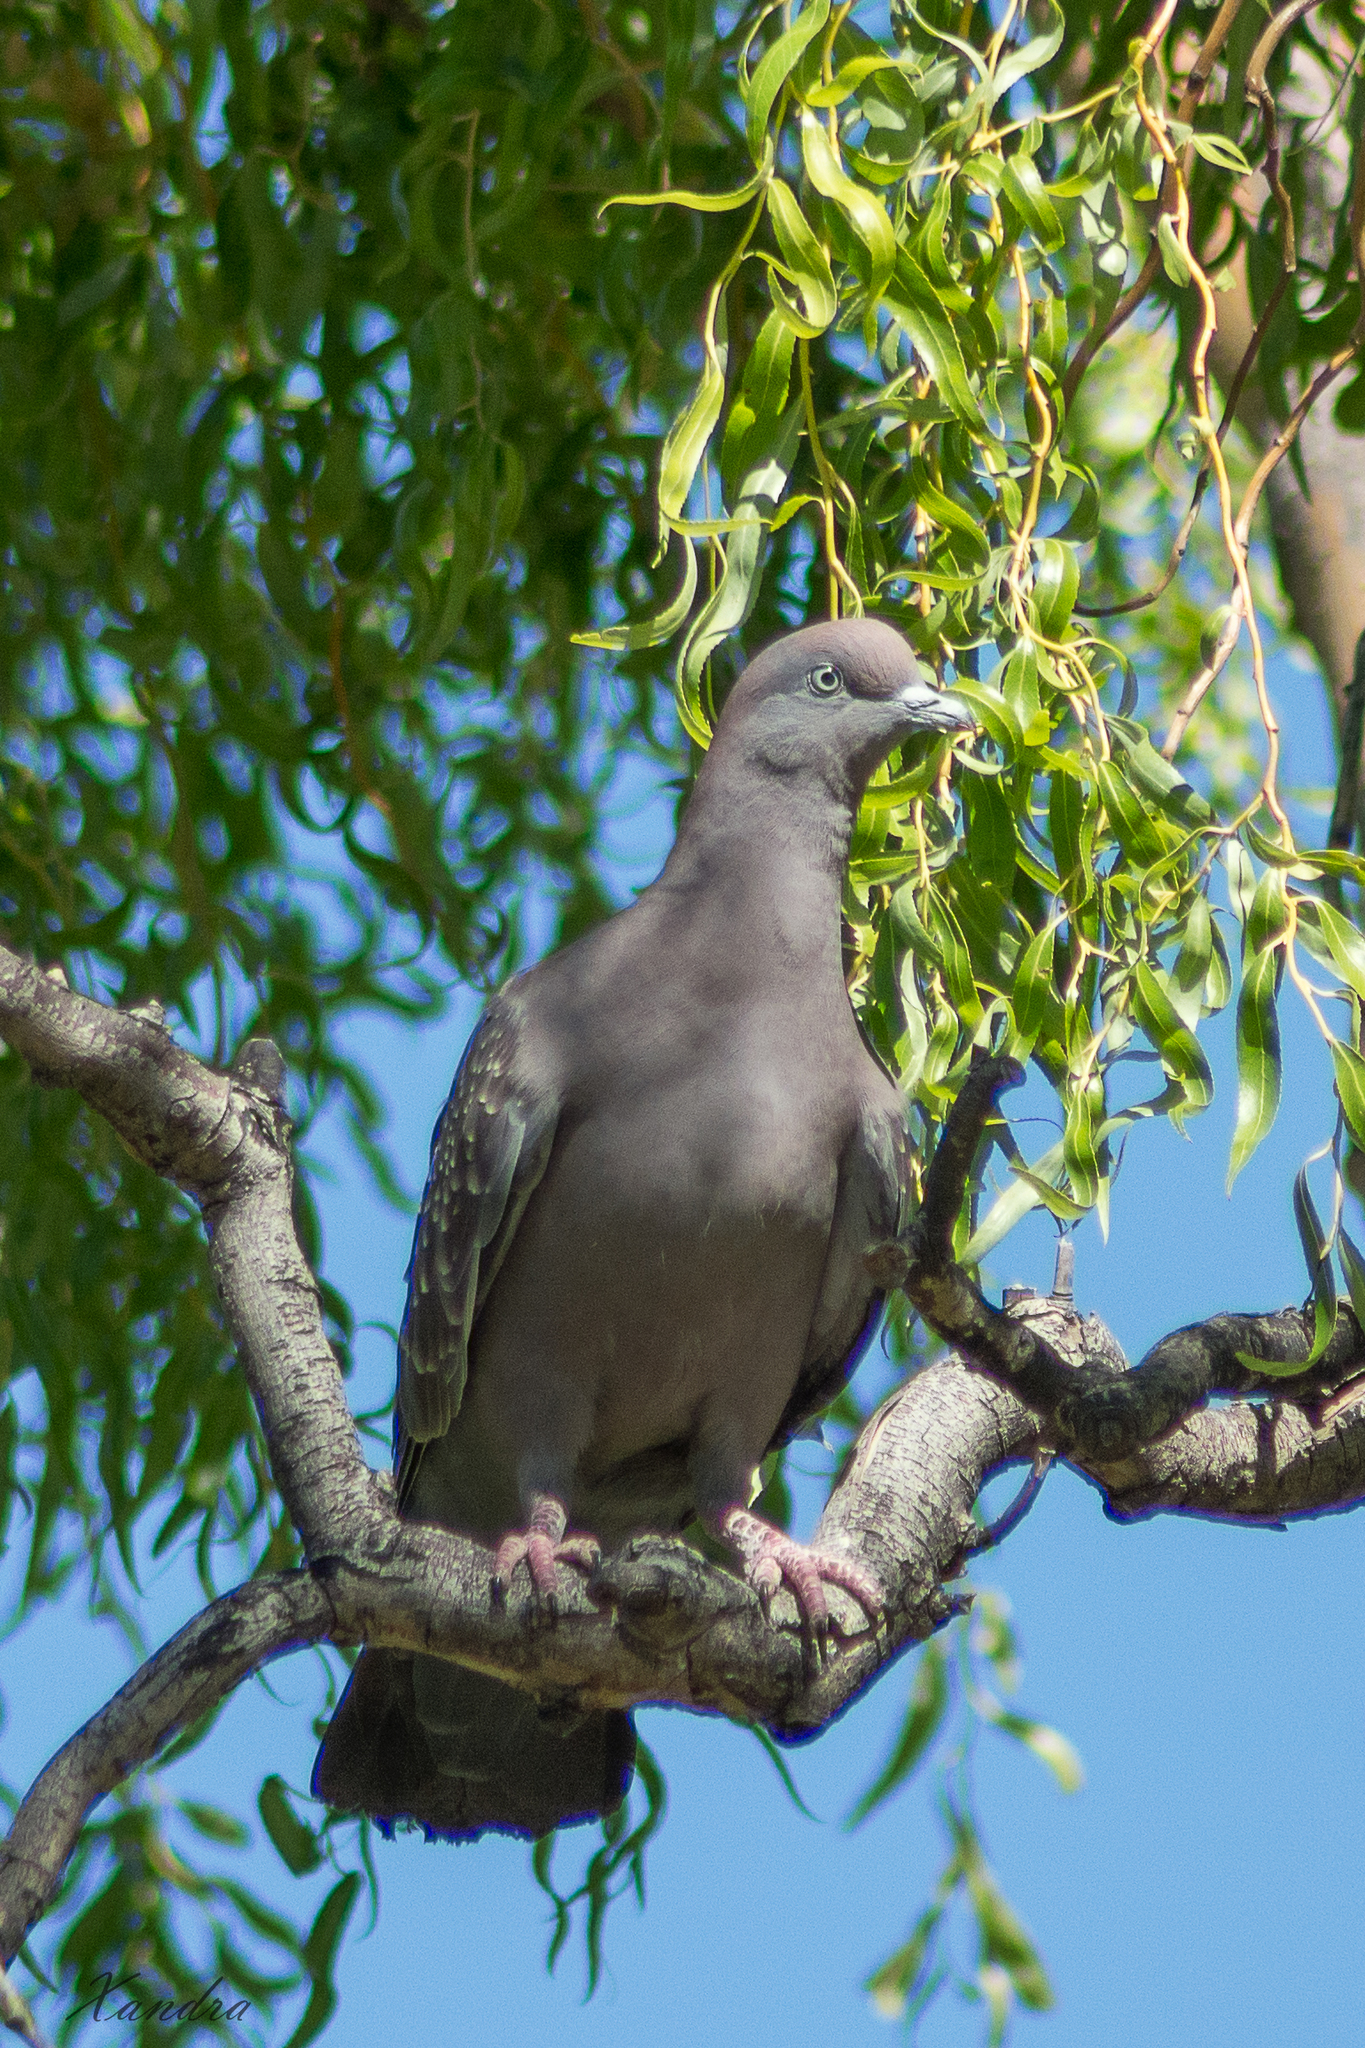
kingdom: Animalia
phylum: Chordata
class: Aves
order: Columbiformes
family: Columbidae
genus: Patagioenas
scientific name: Patagioenas maculosa
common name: Spot-winged pigeon
